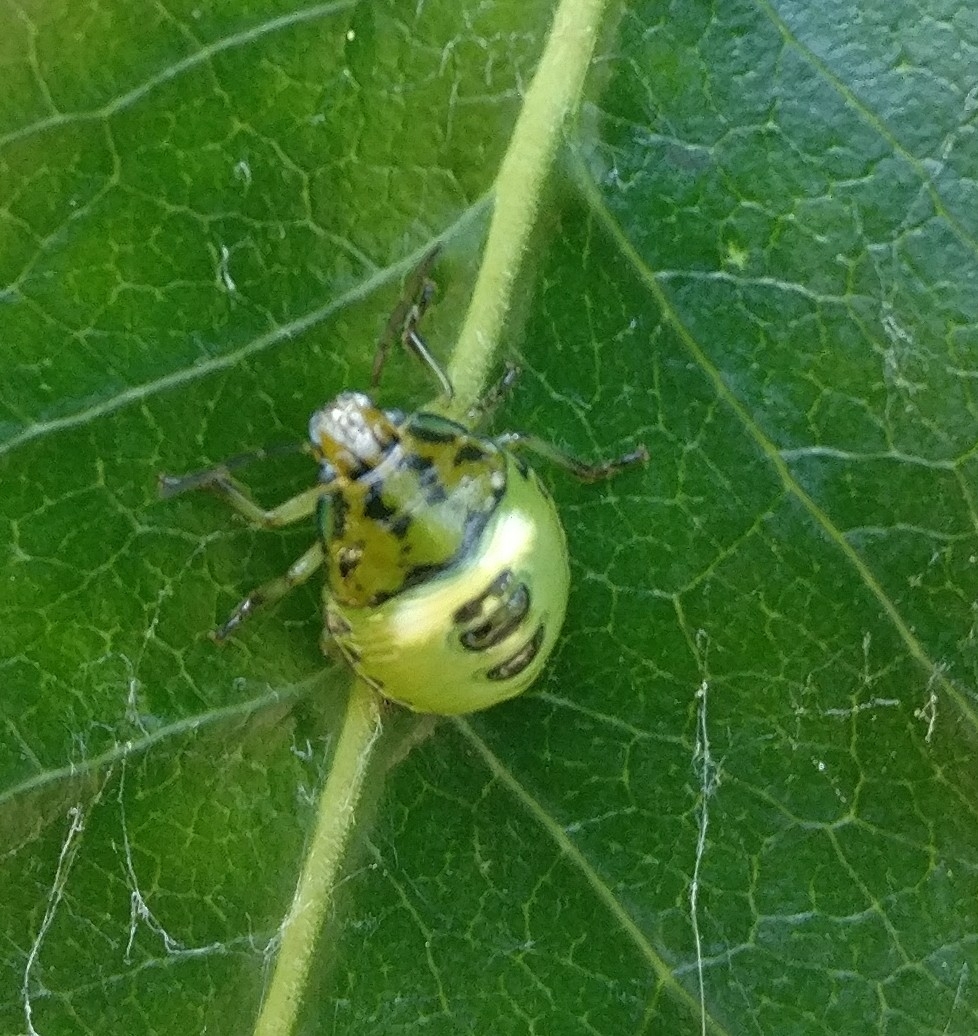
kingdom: Animalia
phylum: Arthropoda
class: Insecta
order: Hemiptera
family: Pentatomidae
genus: Glaucias
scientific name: Glaucias amyota
